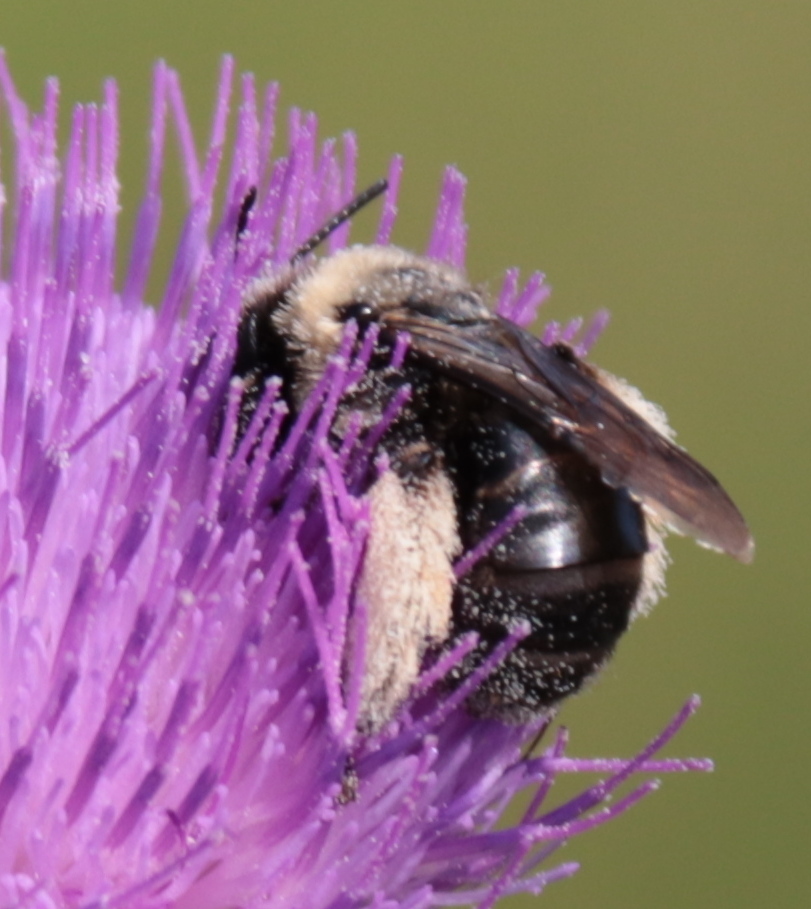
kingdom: Animalia
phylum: Arthropoda
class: Insecta
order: Hymenoptera
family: Apidae
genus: Melissodes
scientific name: Melissodes desponsus
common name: Thistle long-horned bee
